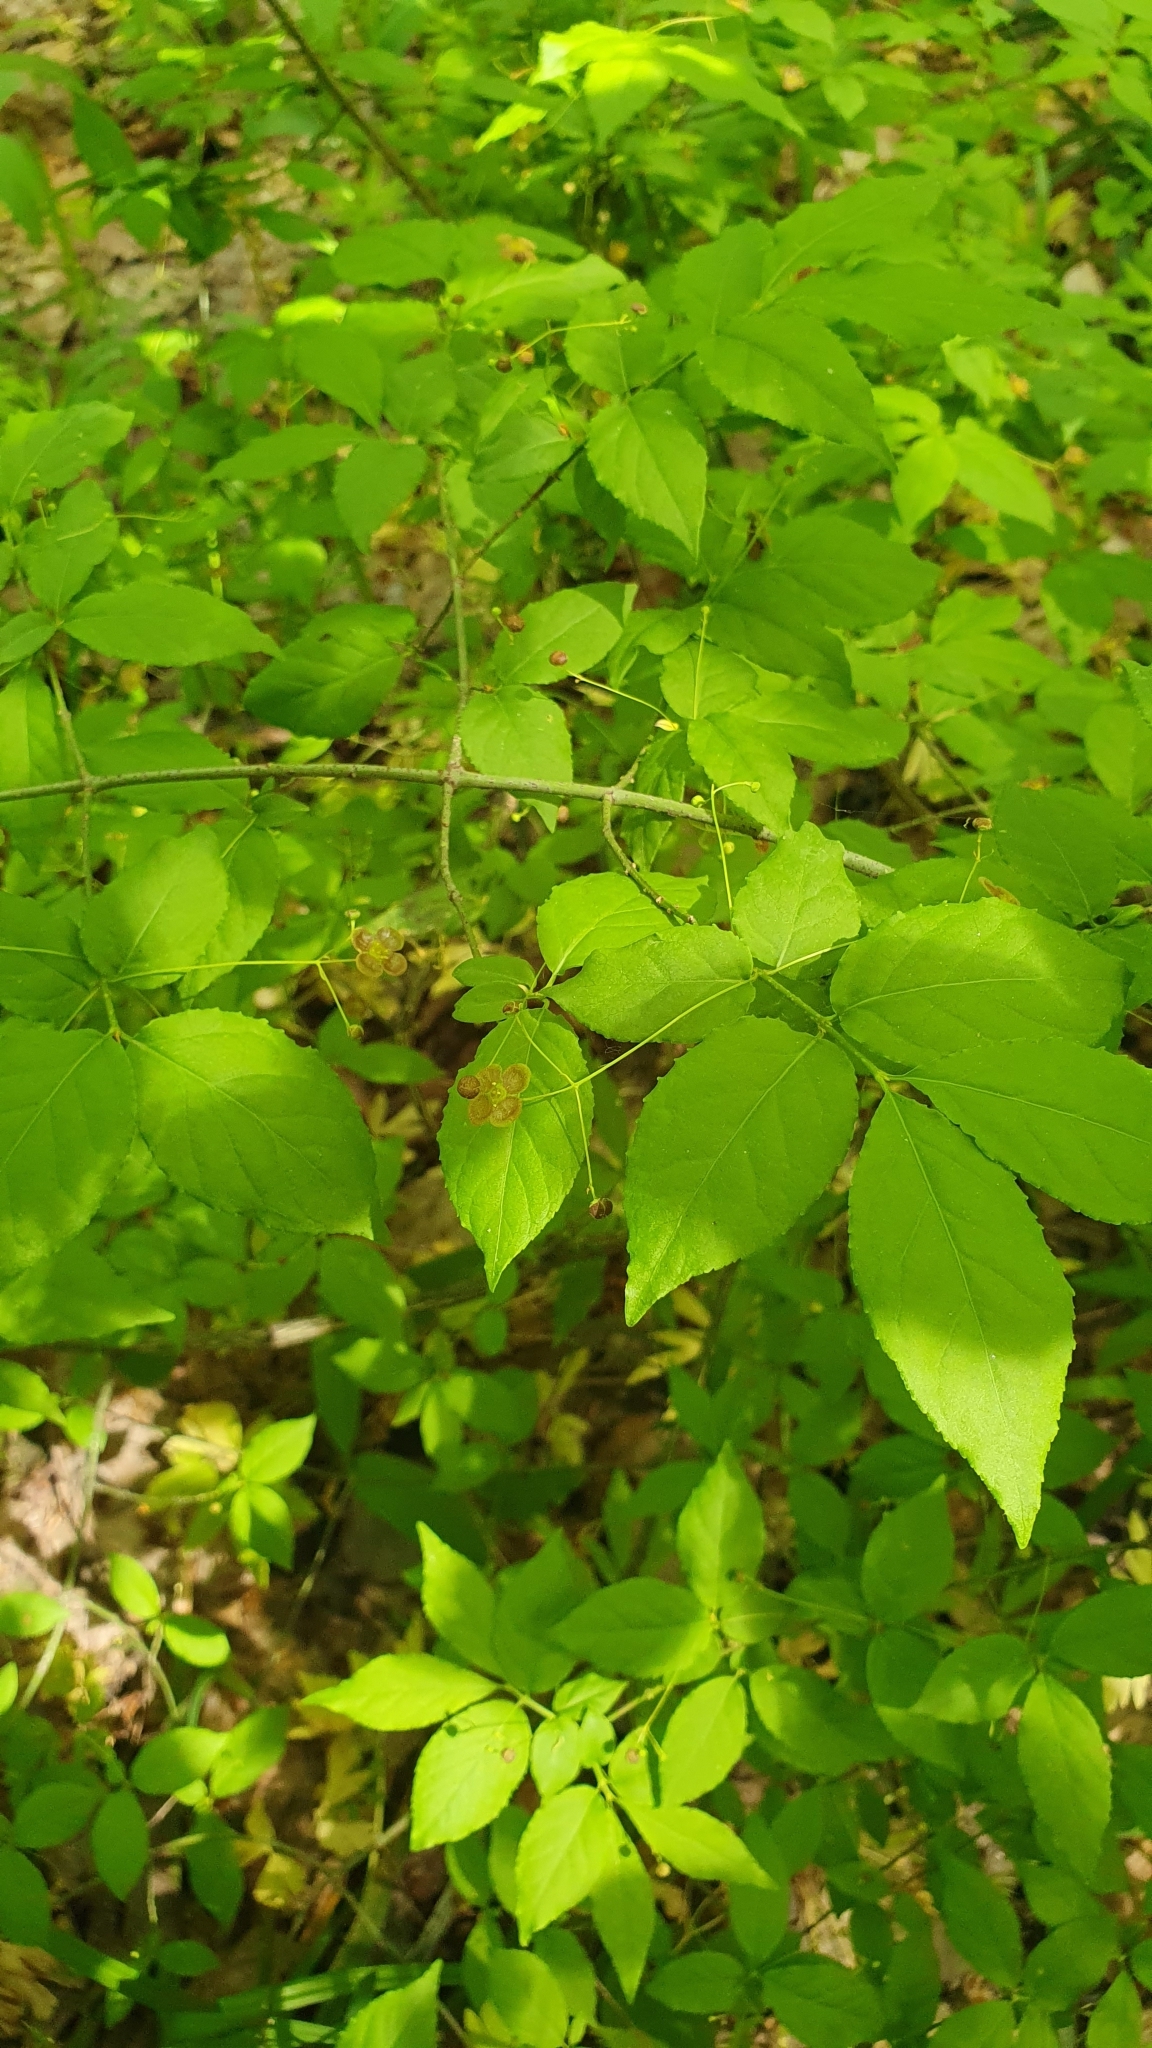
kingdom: Plantae
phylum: Tracheophyta
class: Magnoliopsida
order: Celastrales
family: Celastraceae
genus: Euonymus
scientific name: Euonymus verrucosus
